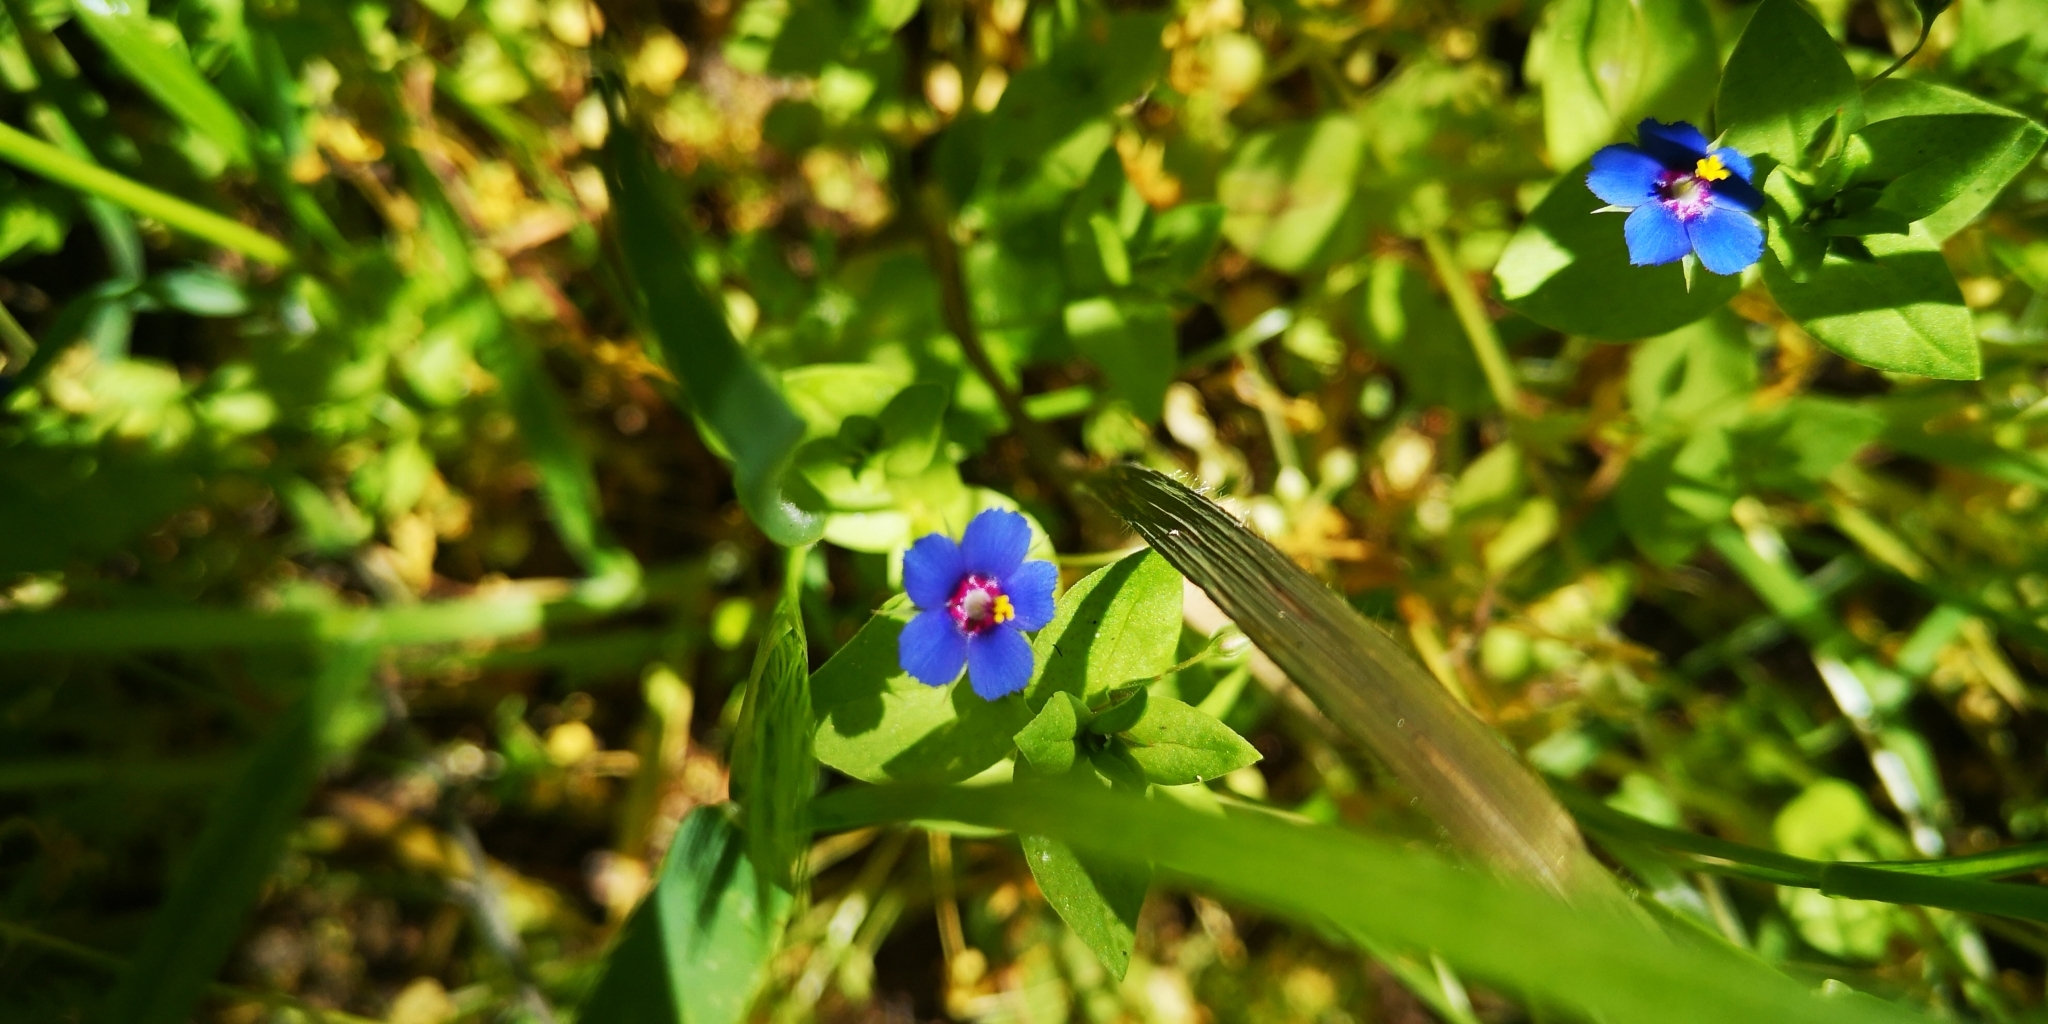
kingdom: Plantae
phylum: Tracheophyta
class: Magnoliopsida
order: Ericales
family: Primulaceae
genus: Lysimachia
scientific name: Lysimachia arvensis
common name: Scarlet pimpernel
